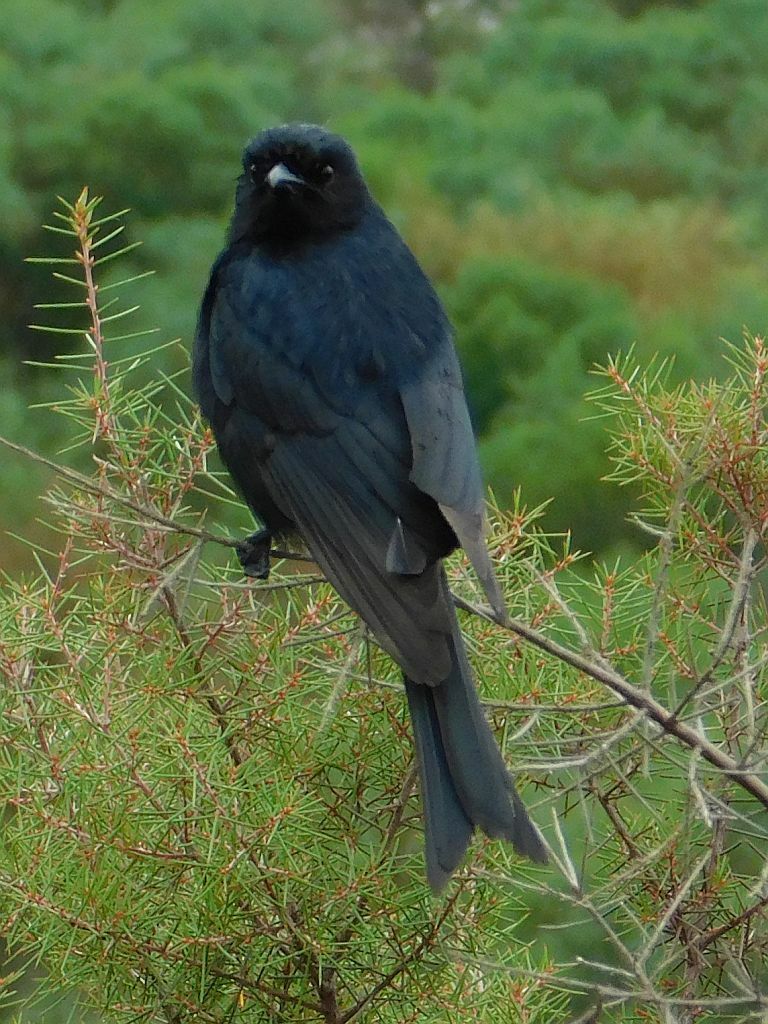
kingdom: Animalia
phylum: Chordata
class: Aves
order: Passeriformes
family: Dicruridae
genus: Dicrurus
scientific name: Dicrurus adsimilis
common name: Fork-tailed drongo
